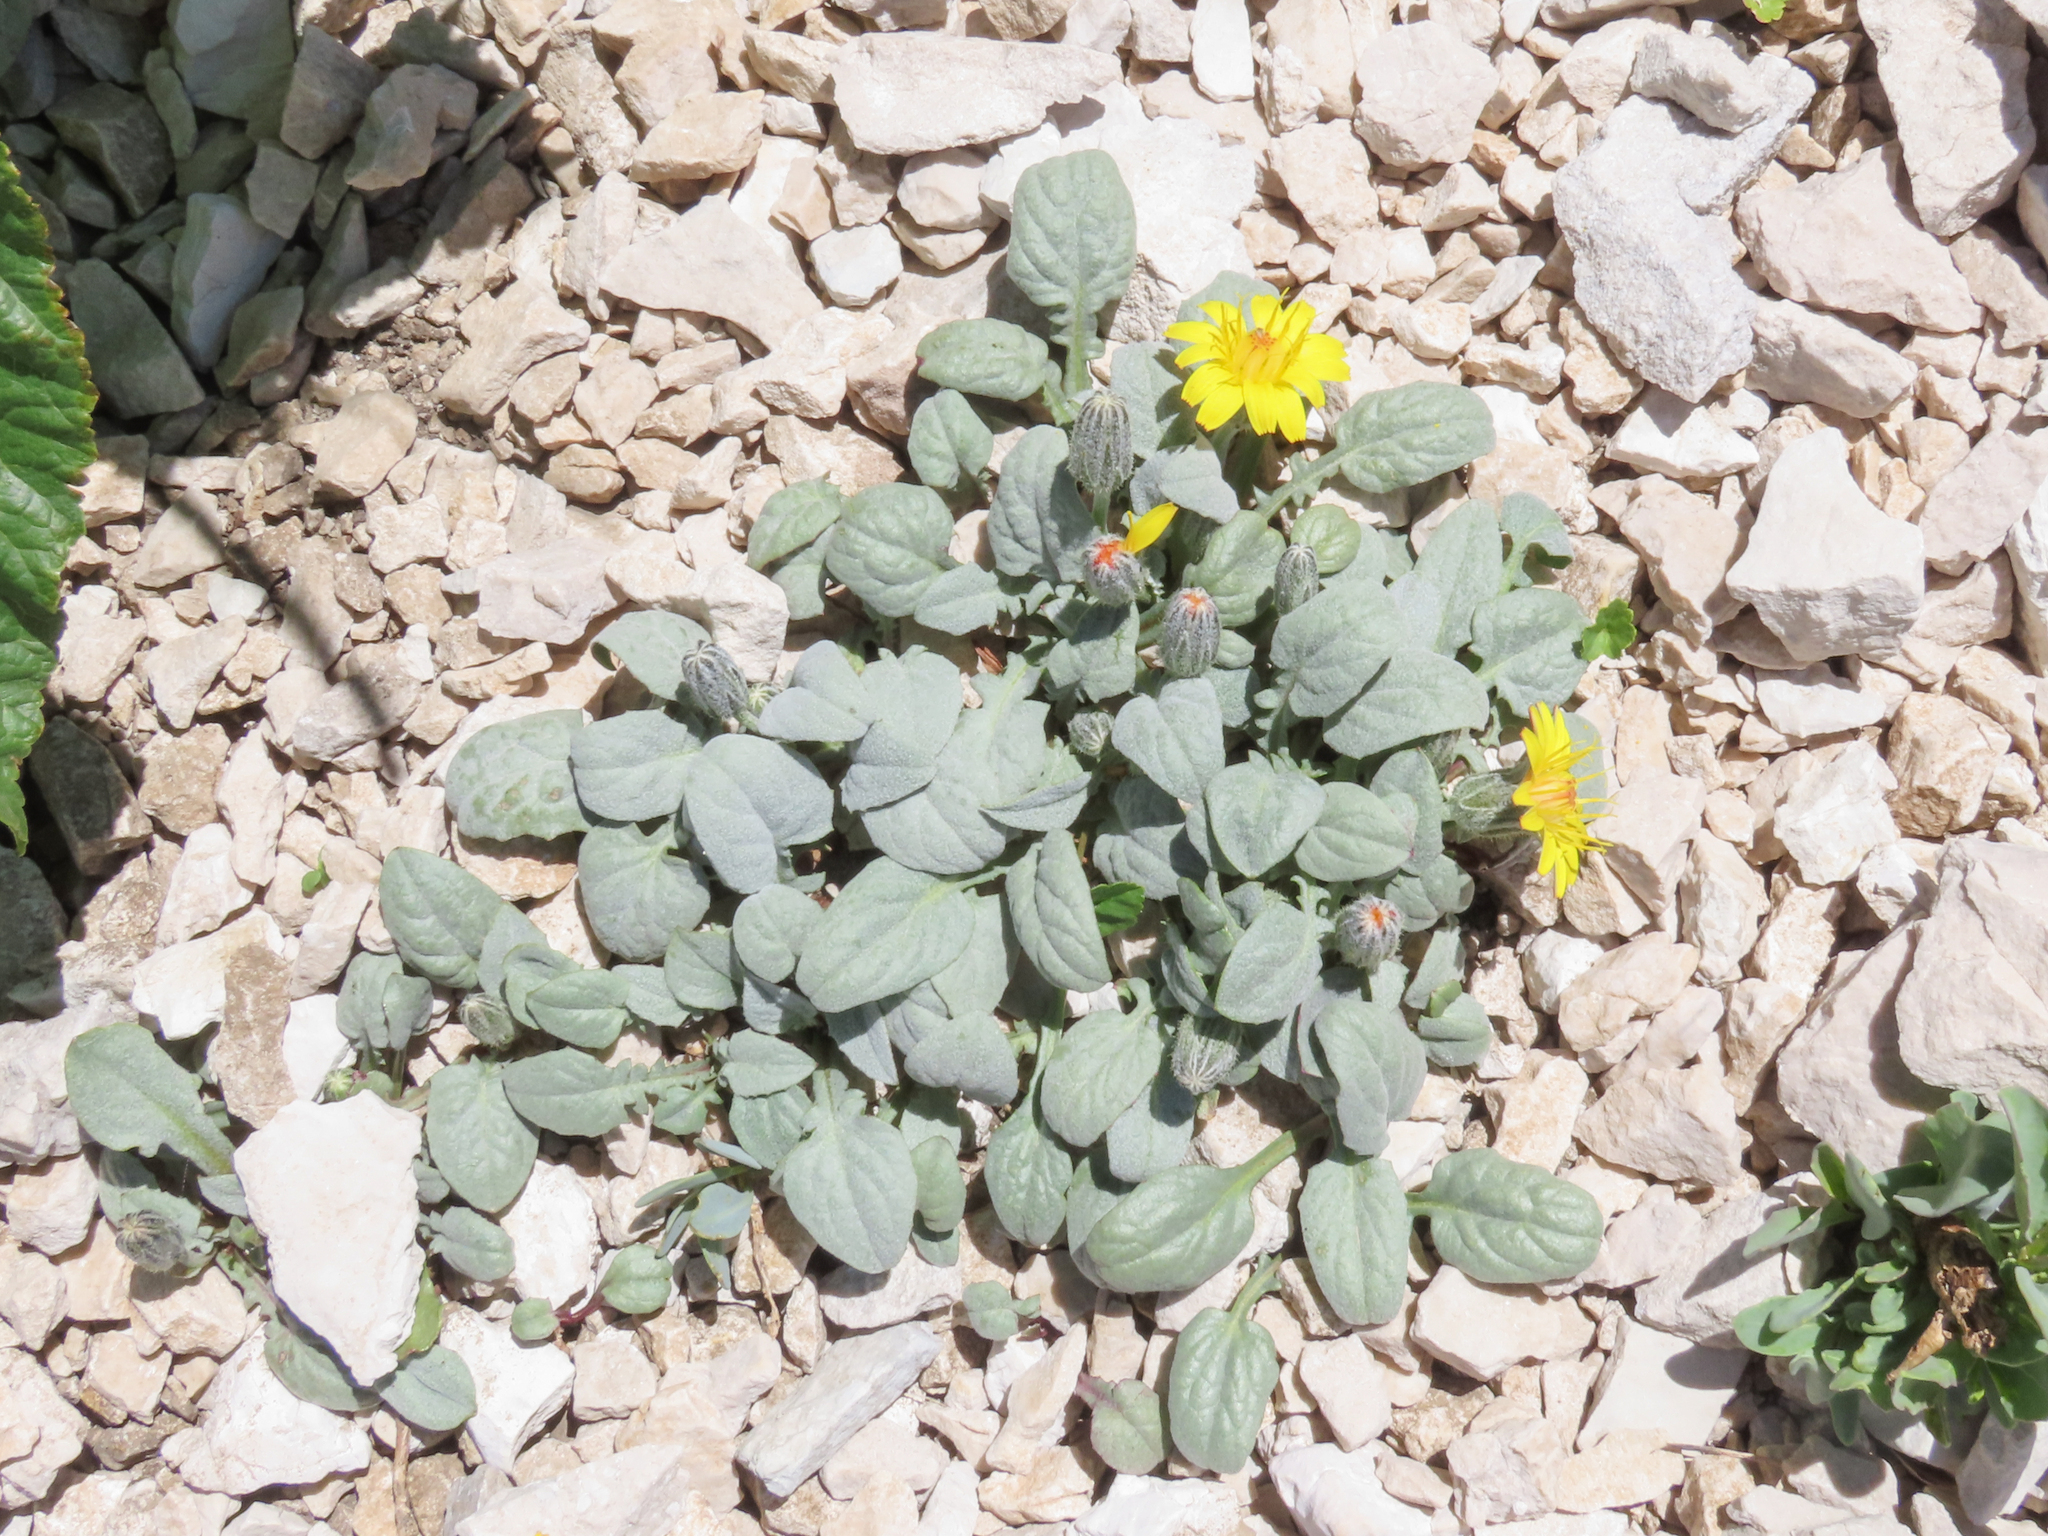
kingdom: Plantae
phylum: Tracheophyta
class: Magnoliopsida
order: Asterales
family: Asteraceae
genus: Crepis
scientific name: Crepis pygmaea
